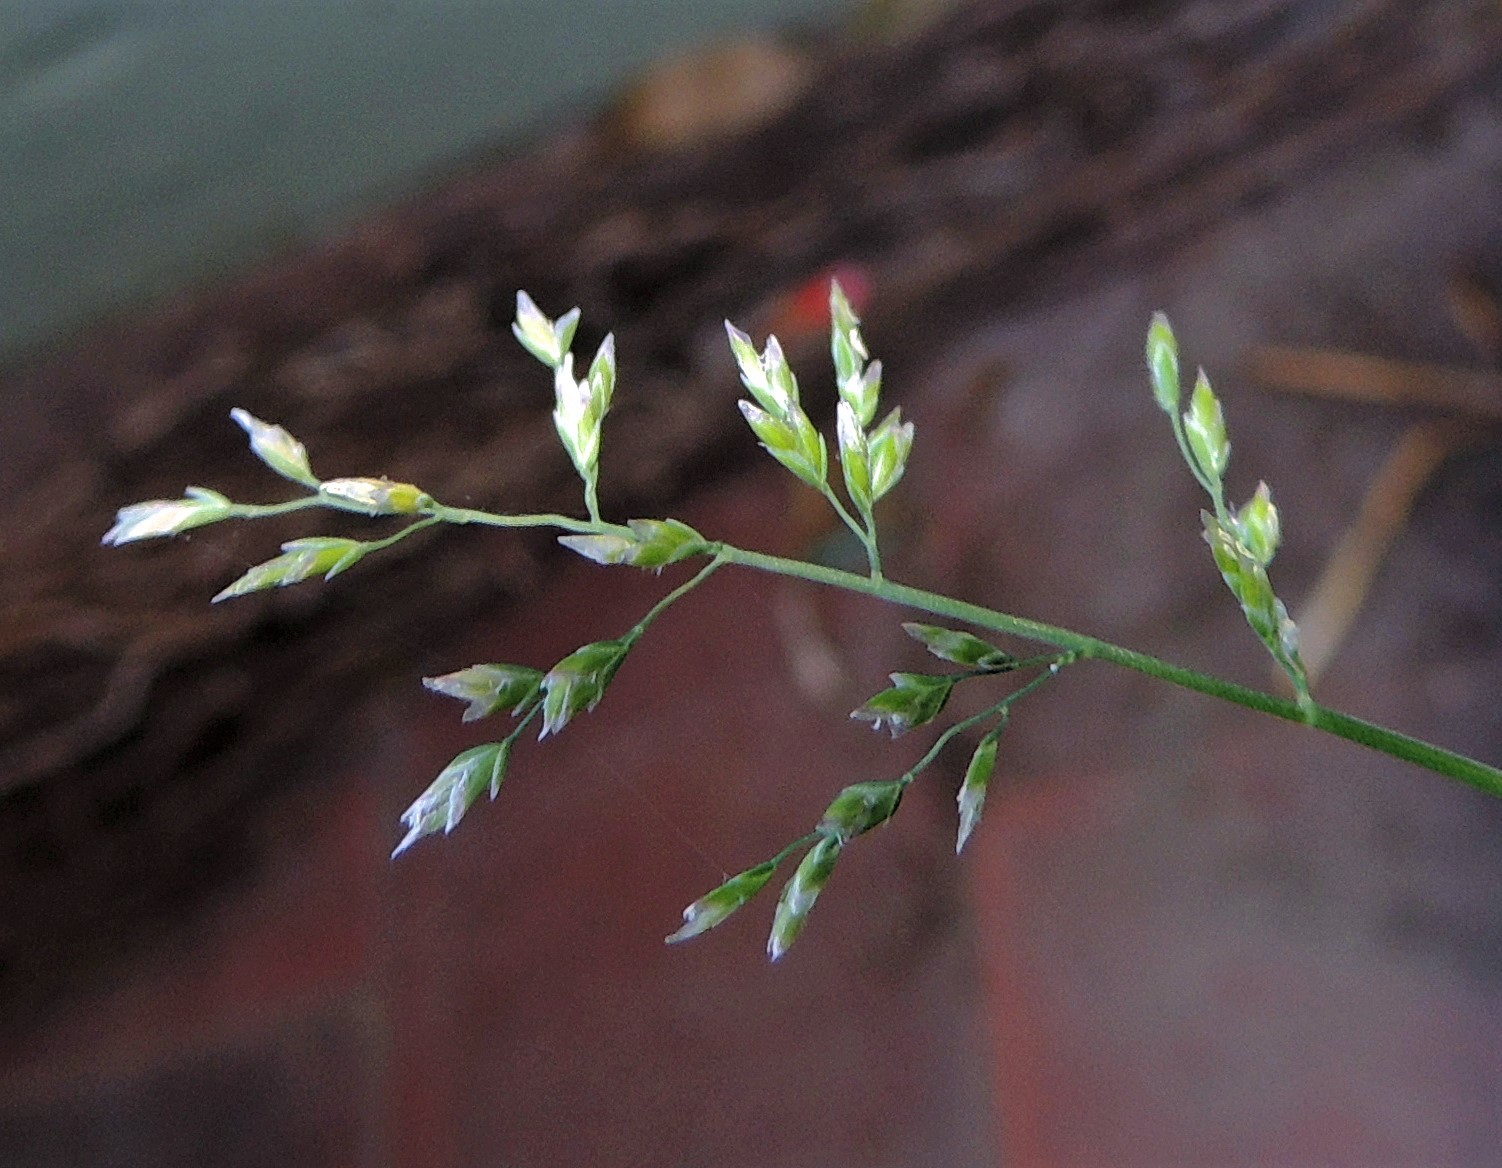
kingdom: Plantae
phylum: Tracheophyta
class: Liliopsida
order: Poales
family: Poaceae
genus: Poa
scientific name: Poa annua
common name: Annual bluegrass
